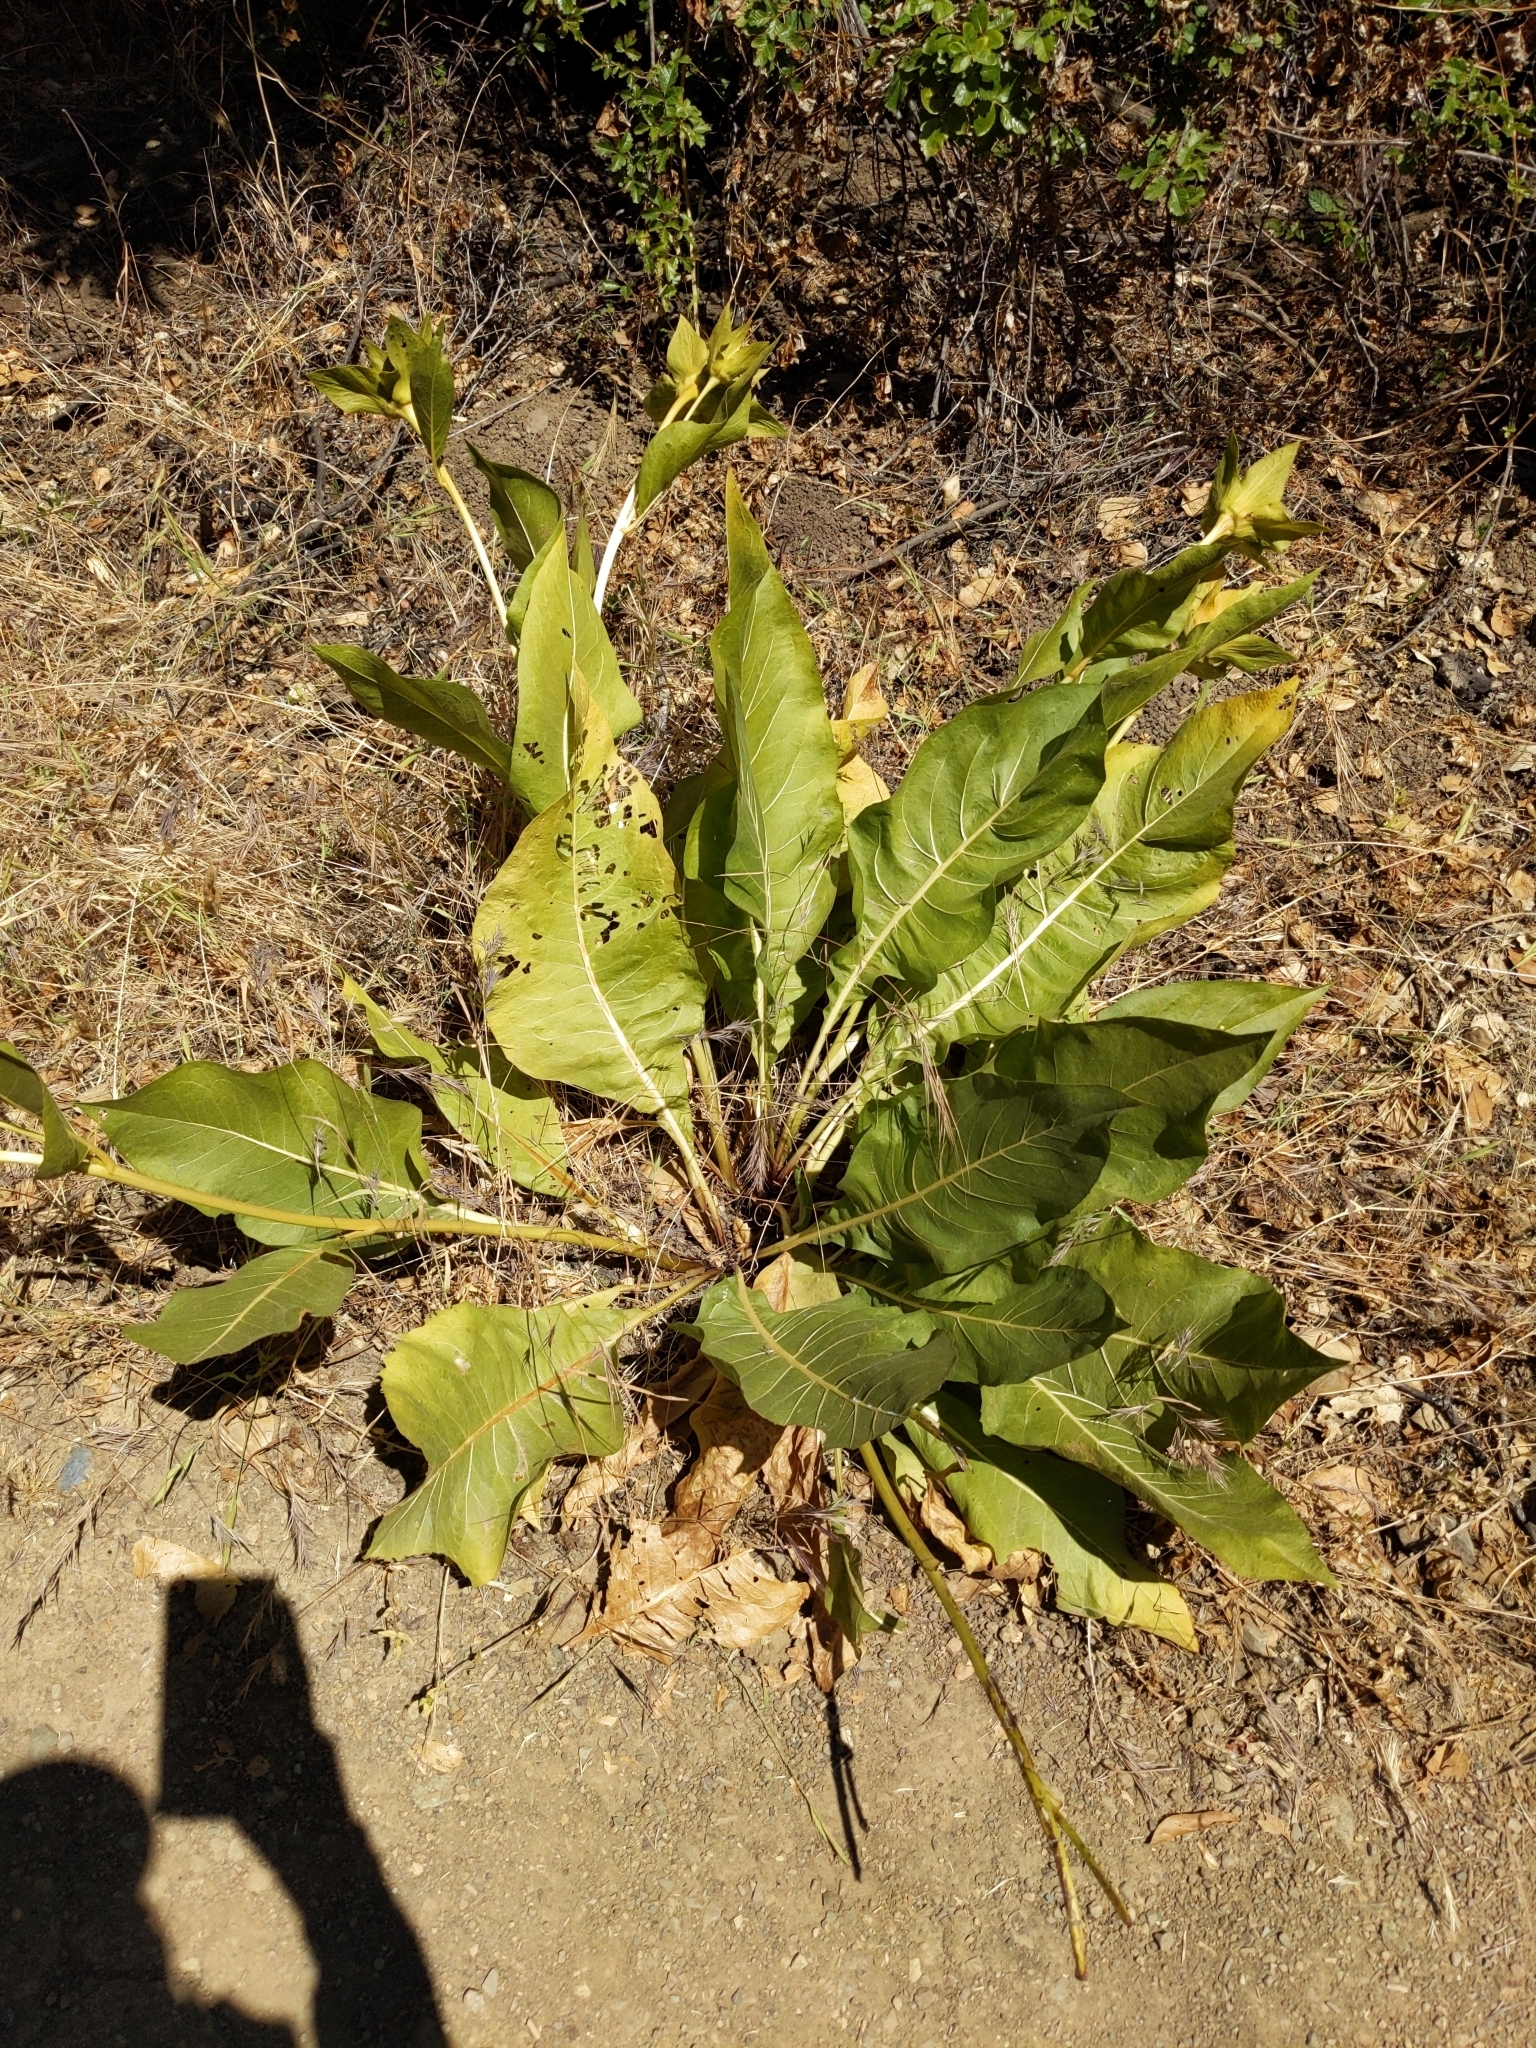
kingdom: Plantae
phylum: Tracheophyta
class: Magnoliopsida
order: Asterales
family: Asteraceae
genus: Wyethia
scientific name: Wyethia glabra
